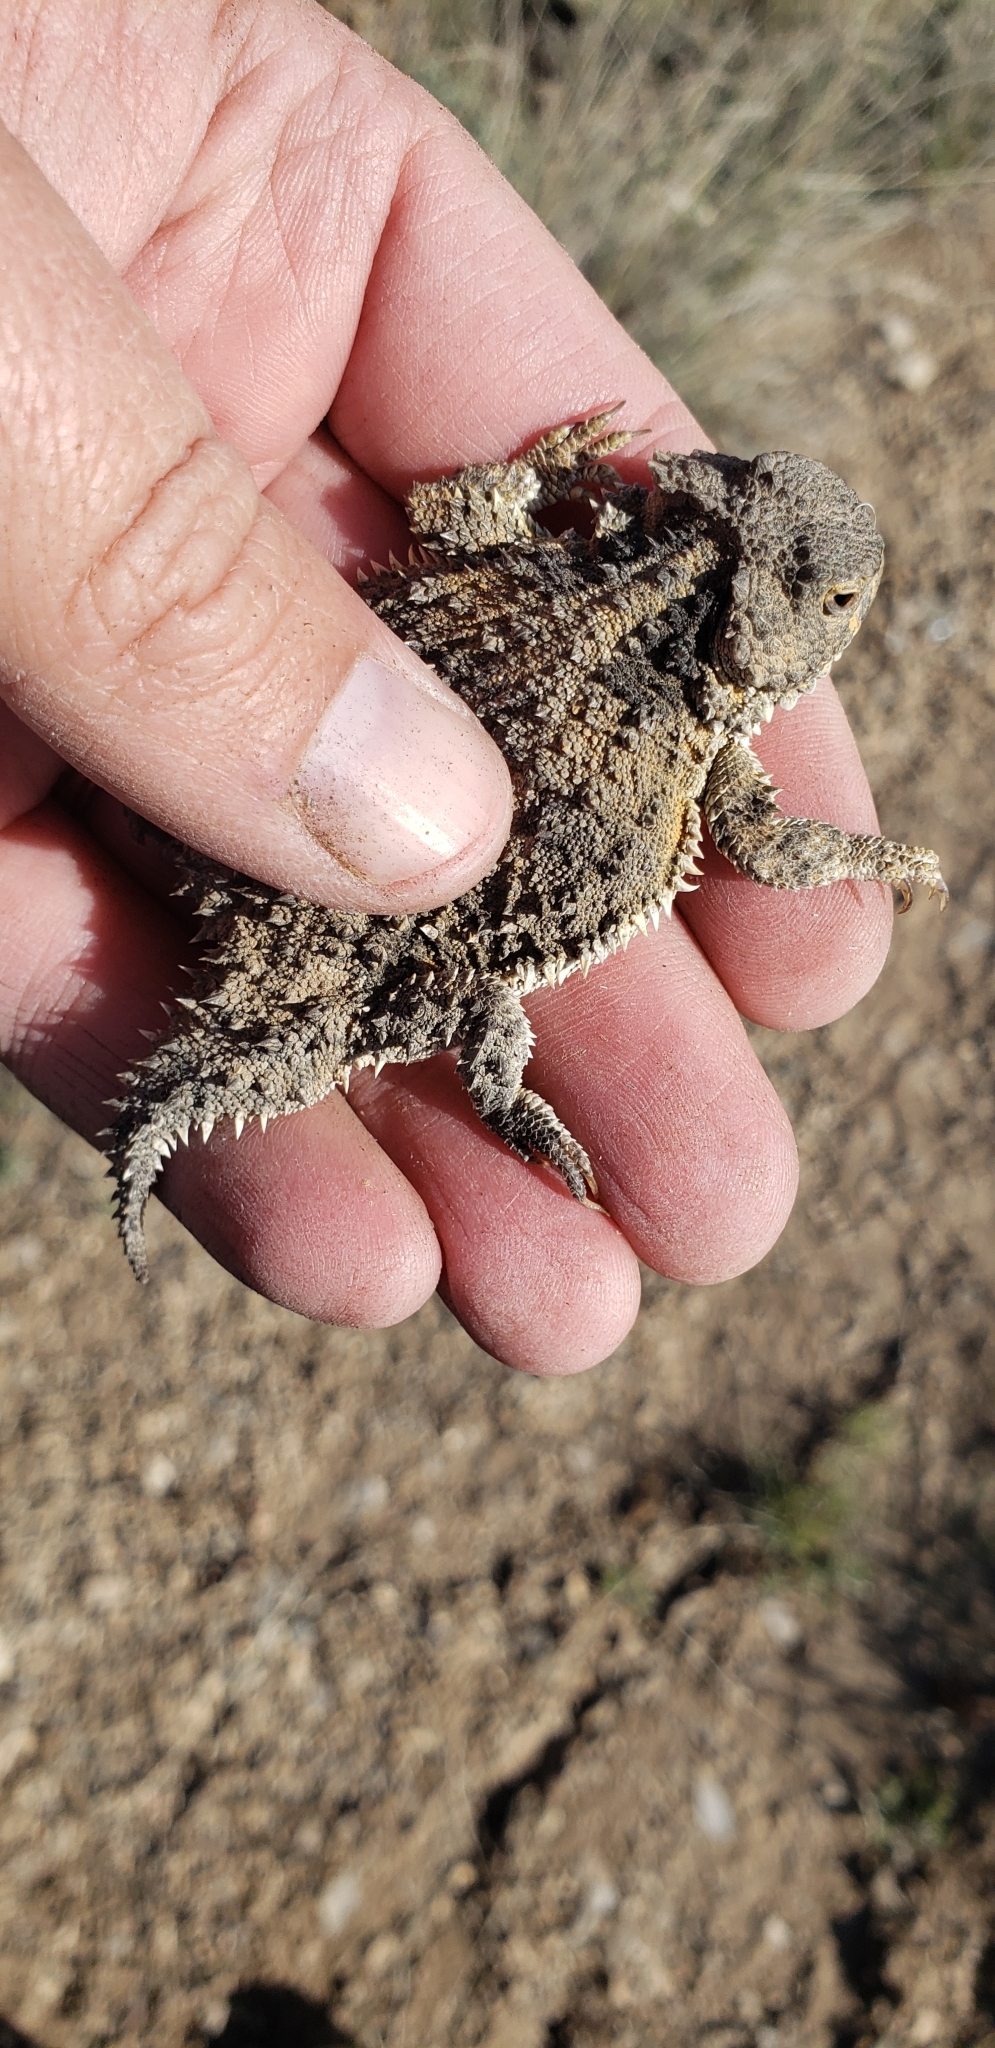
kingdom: Animalia
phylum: Chordata
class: Squamata
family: Phrynosomatidae
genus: Phrynosoma
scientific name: Phrynosoma hernandesi
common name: Greater short-horned lizard
